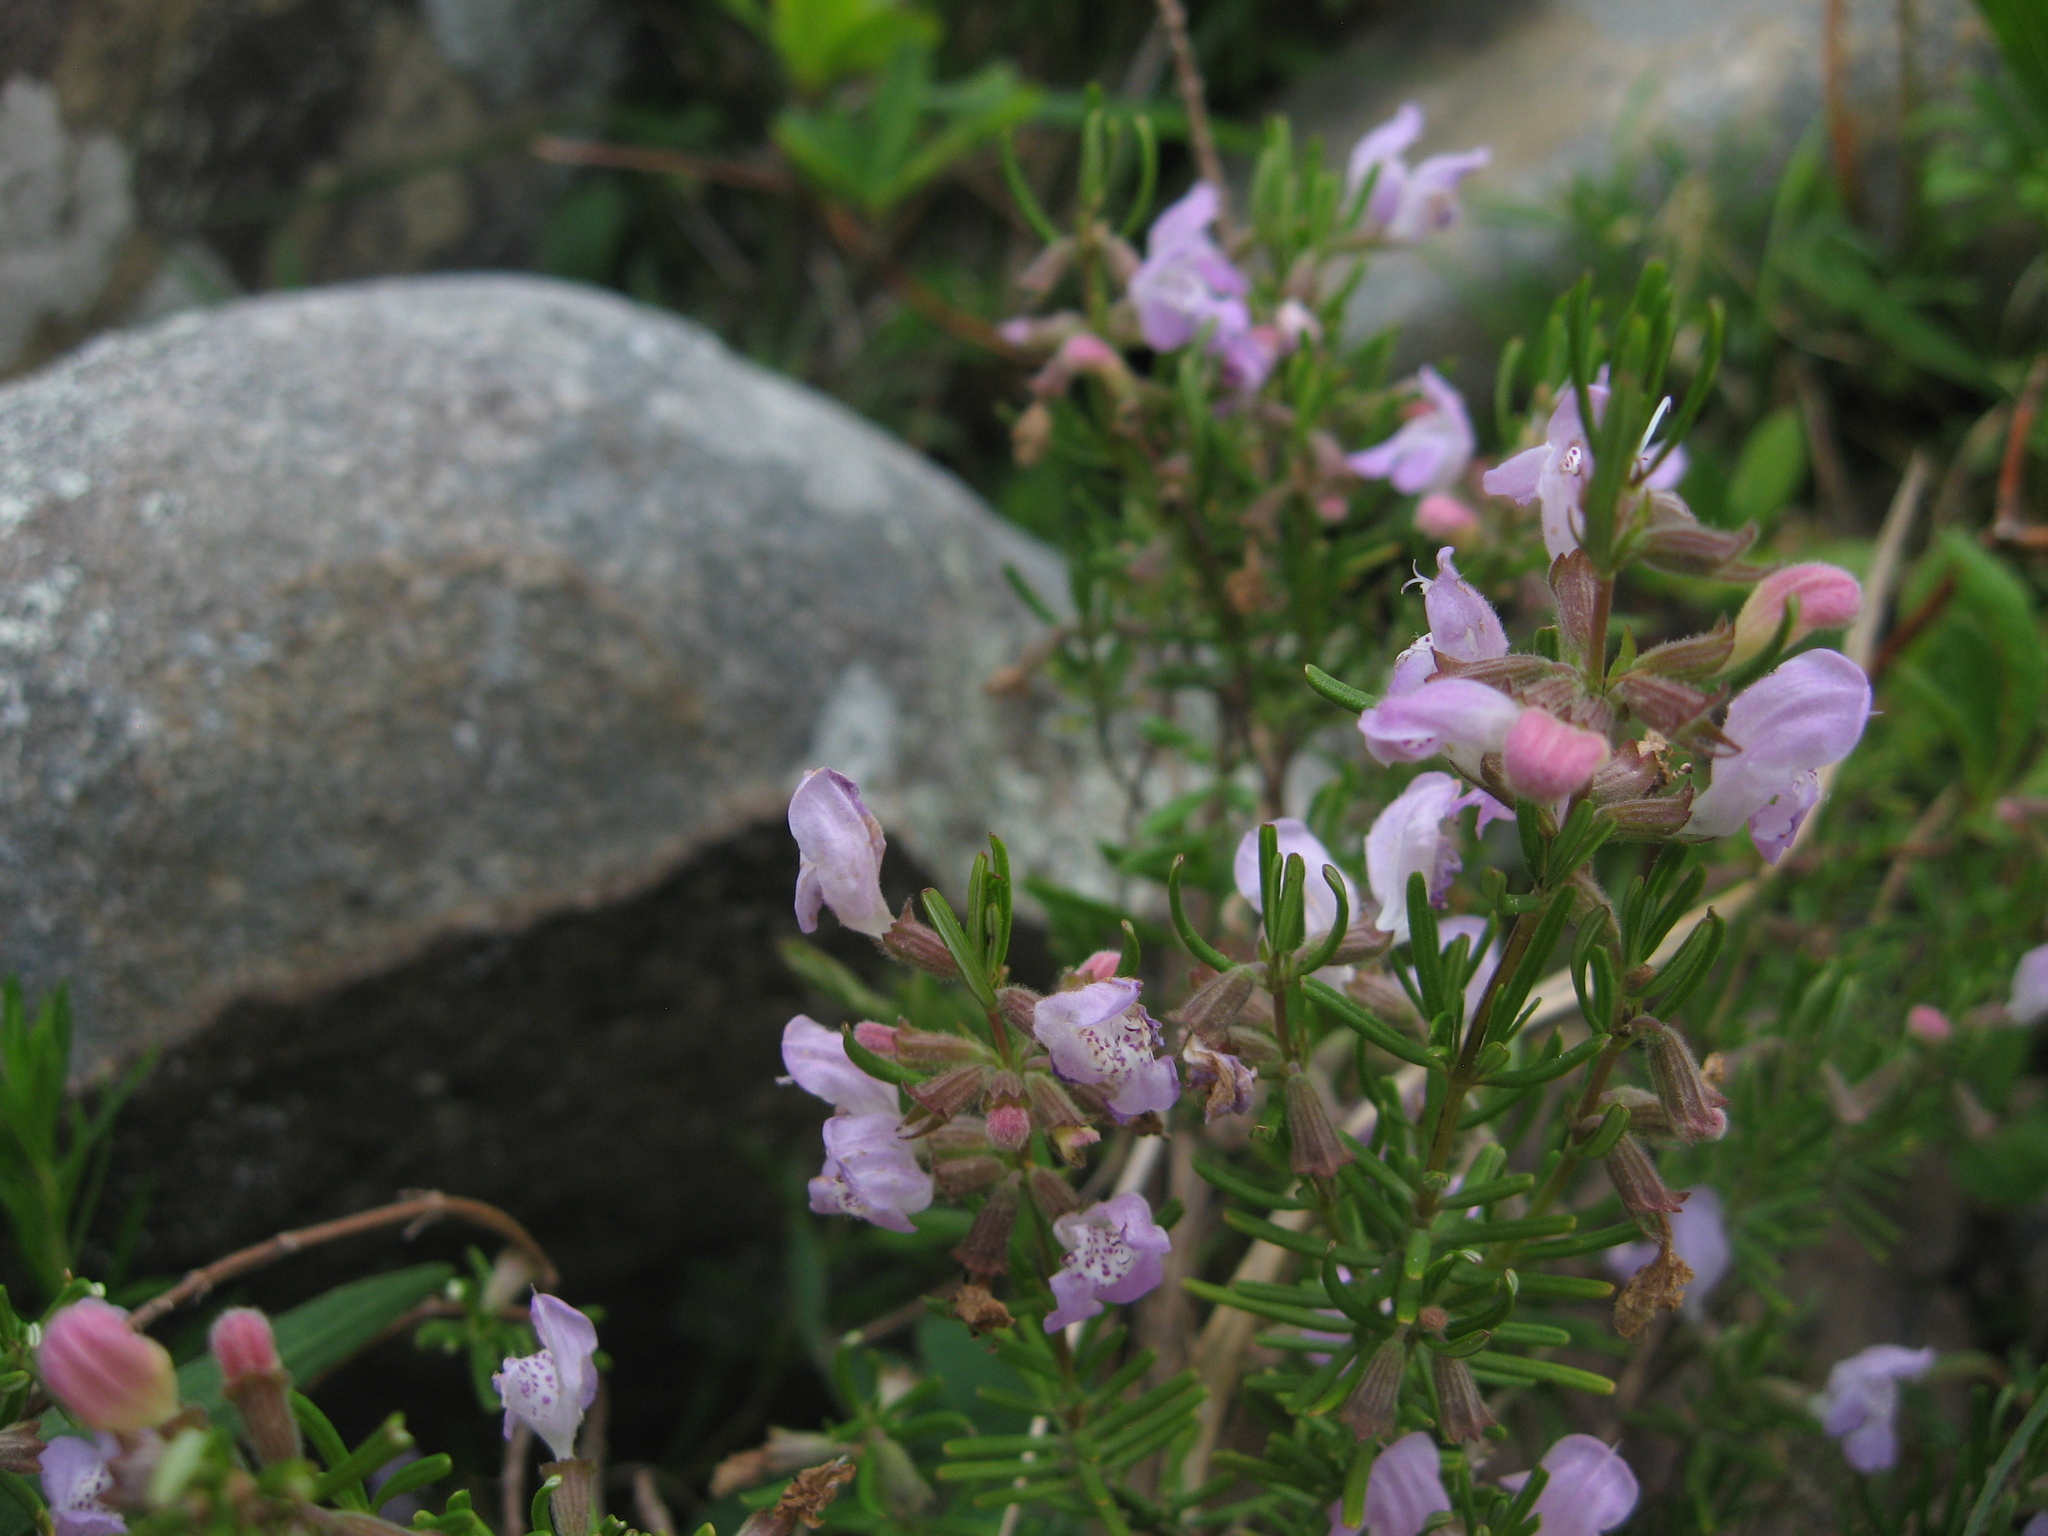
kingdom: Plantae
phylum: Tracheophyta
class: Magnoliopsida
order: Lamiales
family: Lamiaceae
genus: Conradina
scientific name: Conradina verticillata
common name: Cumberland-rosemary
